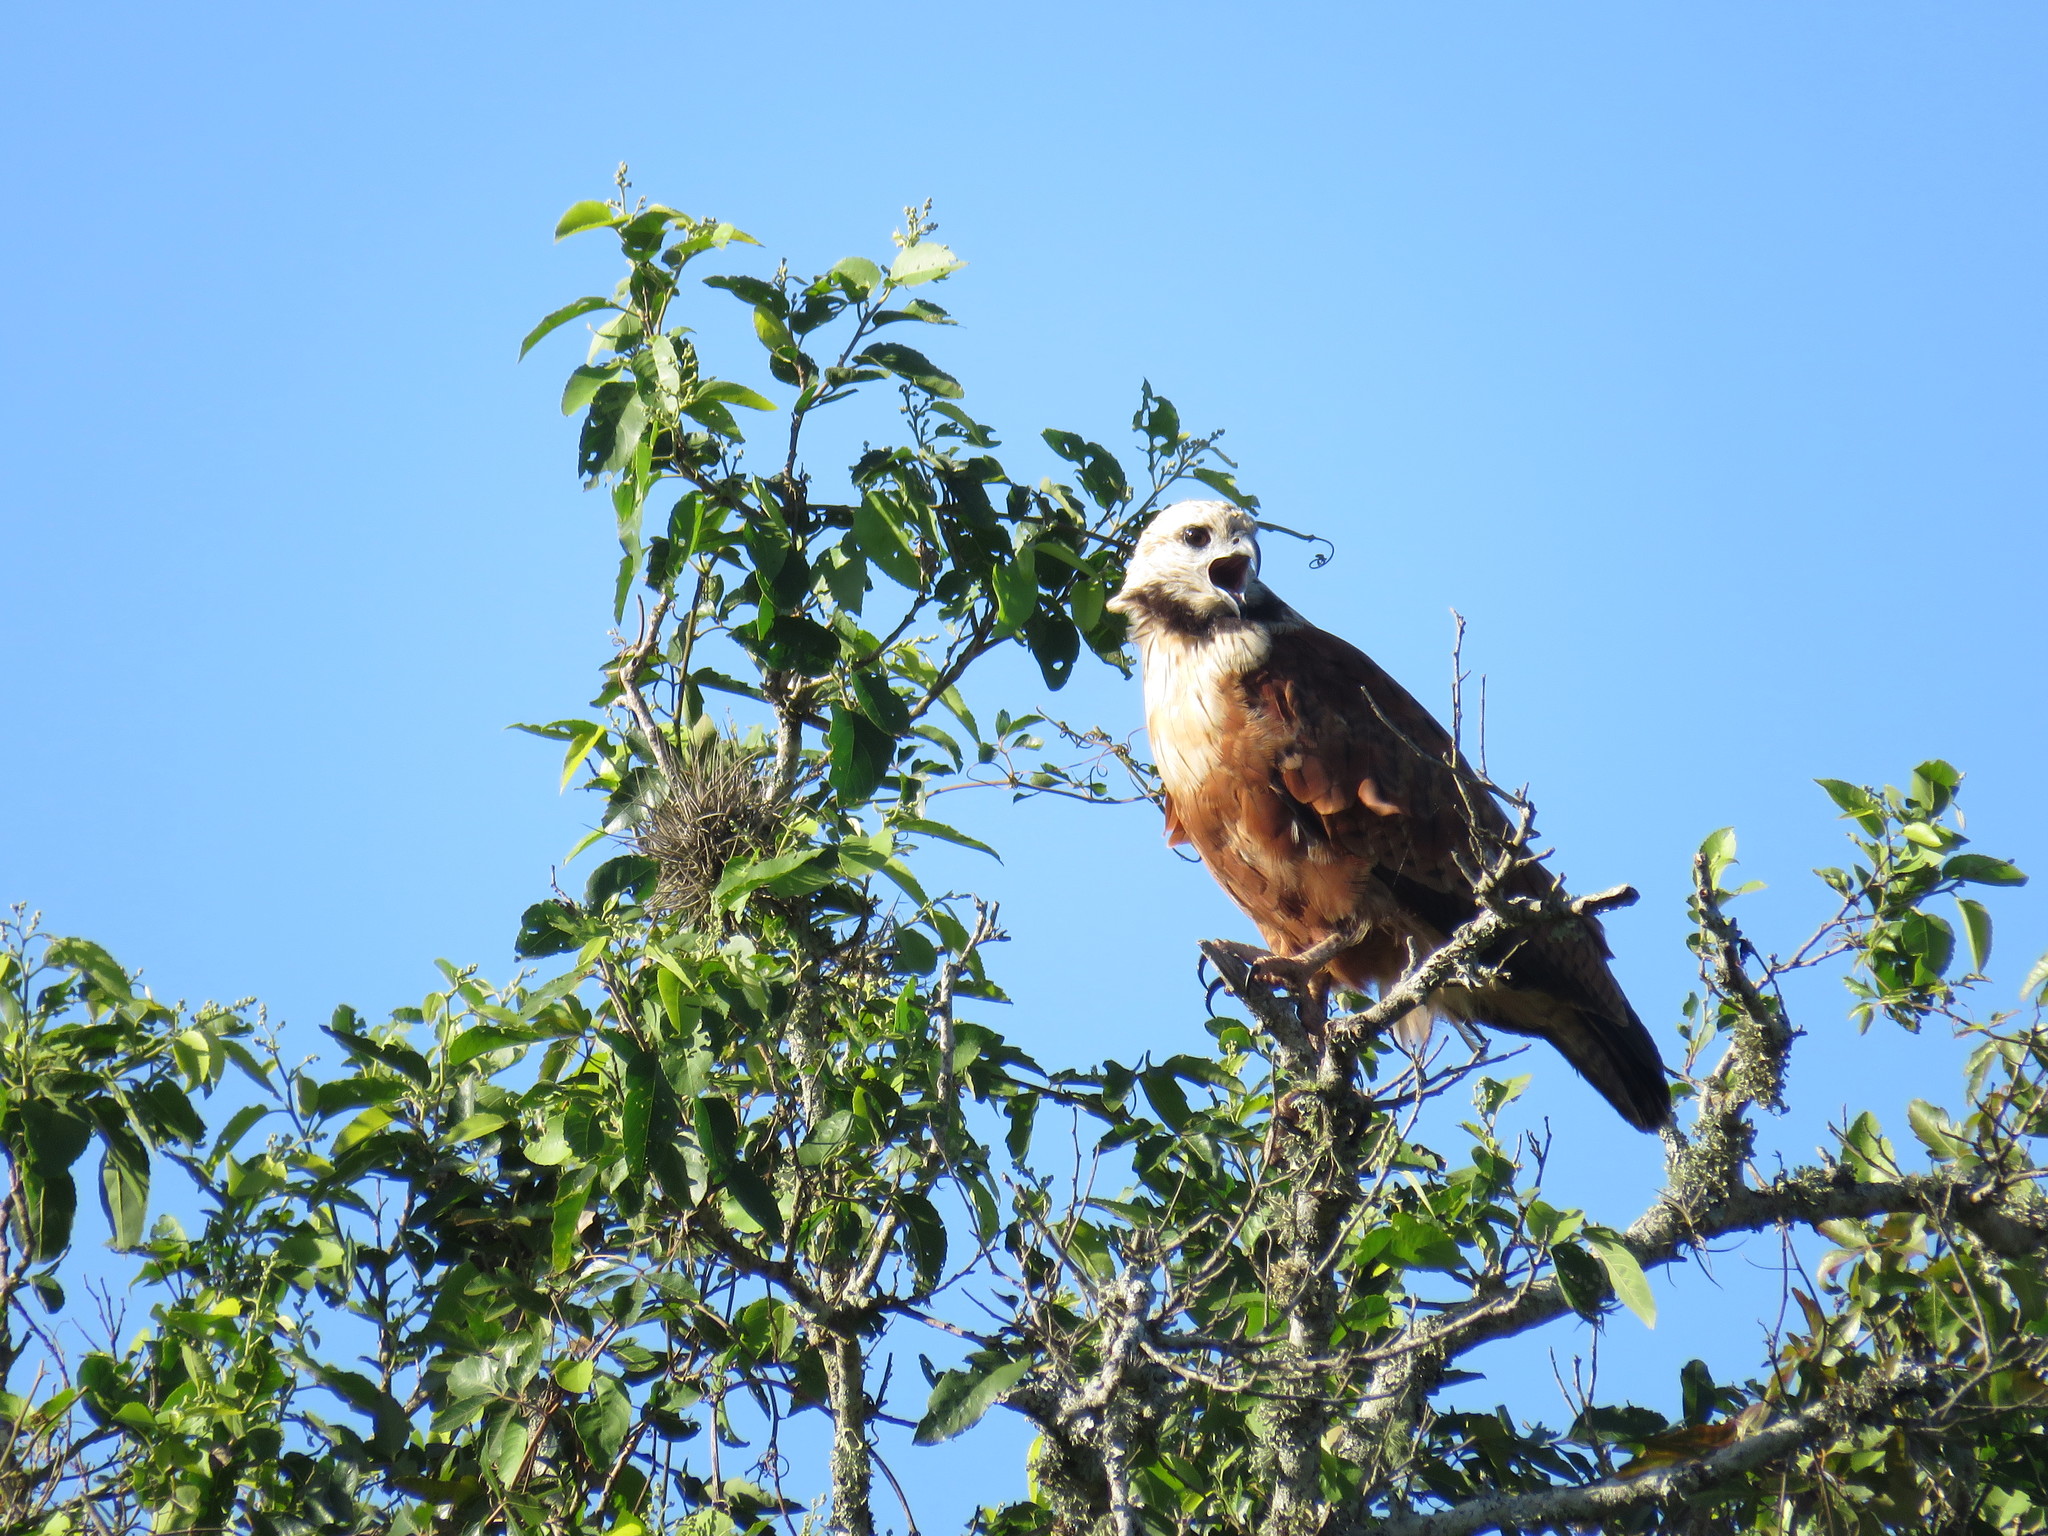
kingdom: Animalia
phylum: Chordata
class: Aves
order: Accipitriformes
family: Accipitridae
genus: Busarellus
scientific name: Busarellus nigricollis
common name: Black-collared hawk
